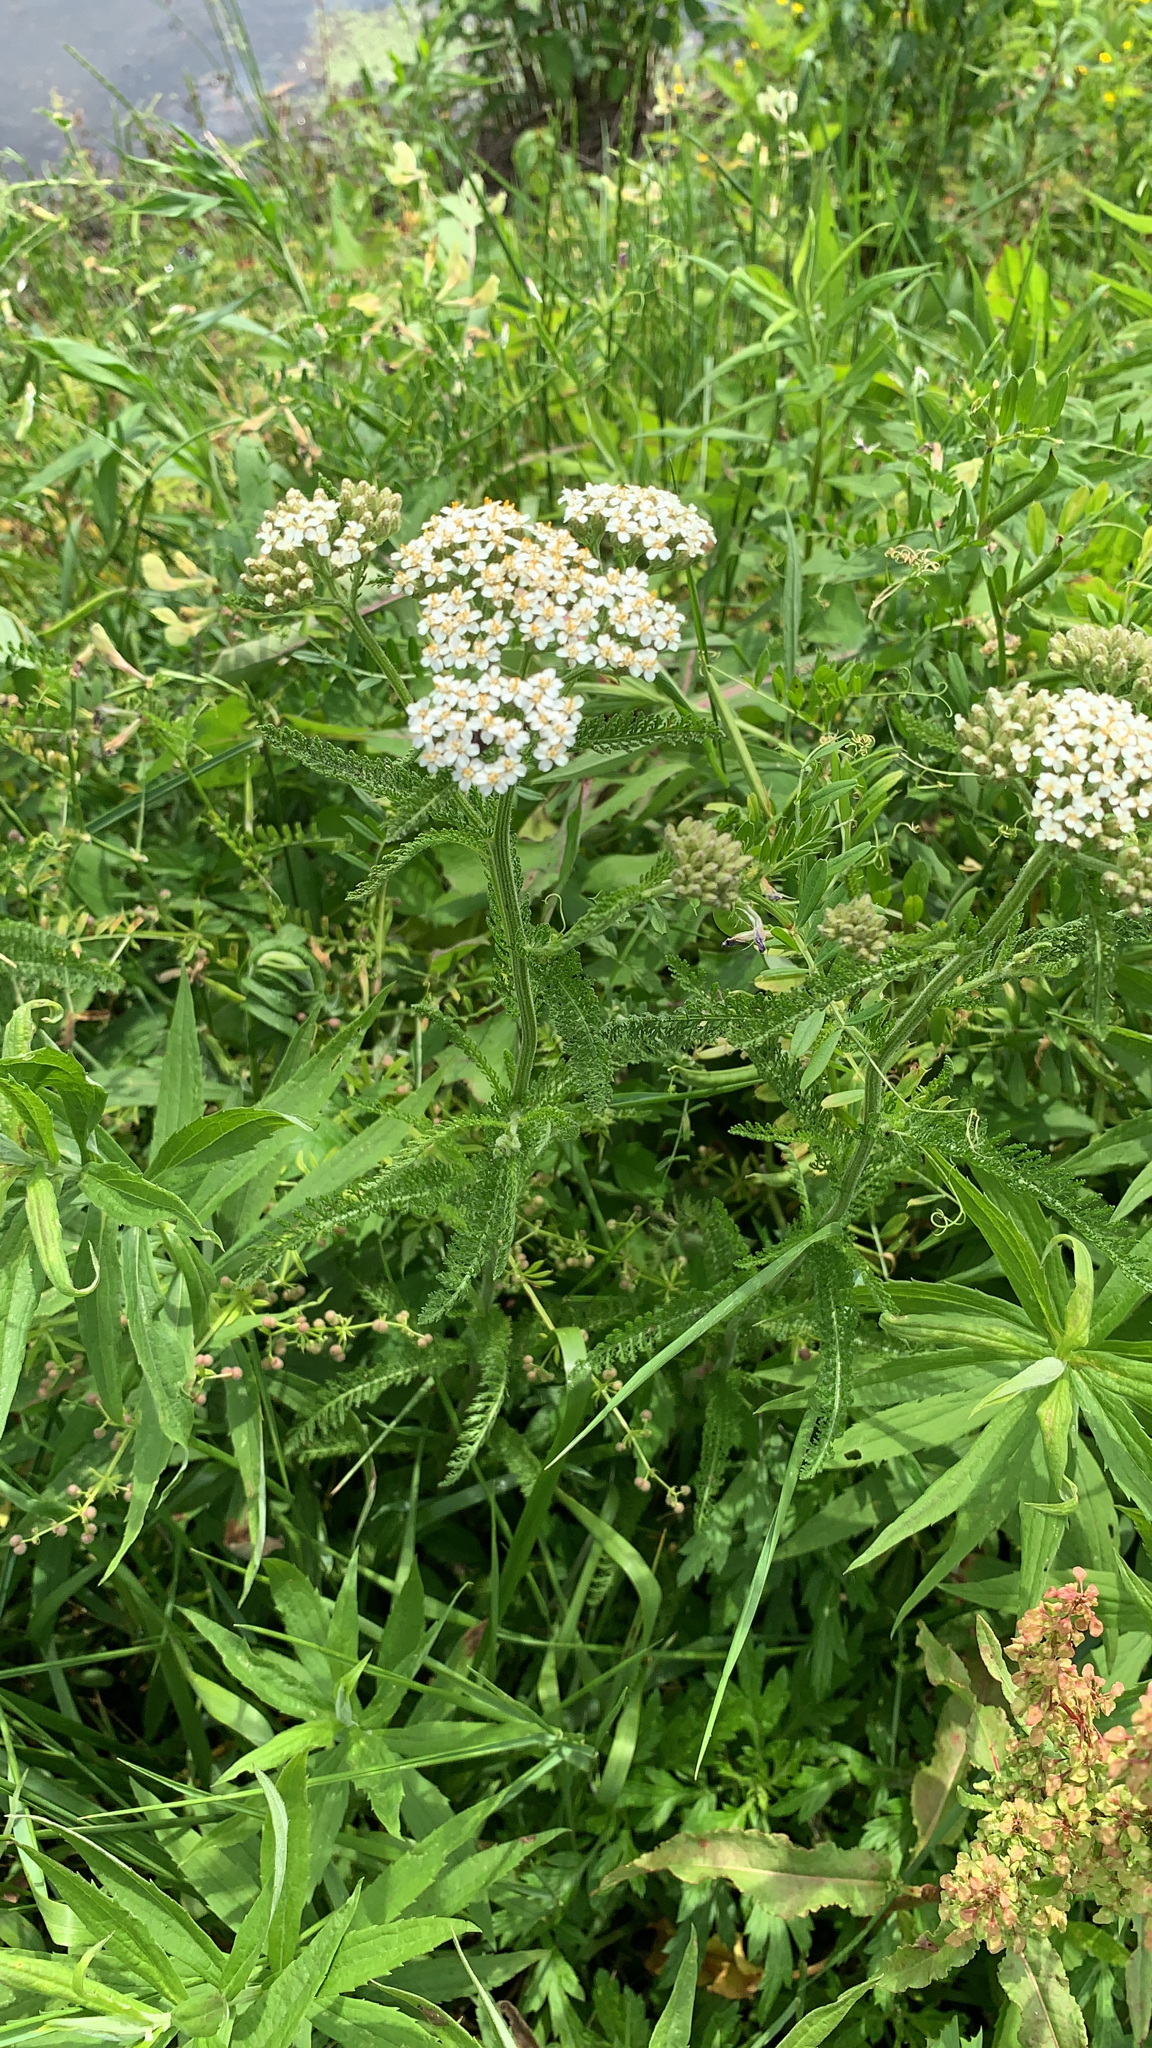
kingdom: Plantae
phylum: Tracheophyta
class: Magnoliopsida
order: Asterales
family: Asteraceae
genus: Achillea
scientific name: Achillea millefolium
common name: Yarrow
